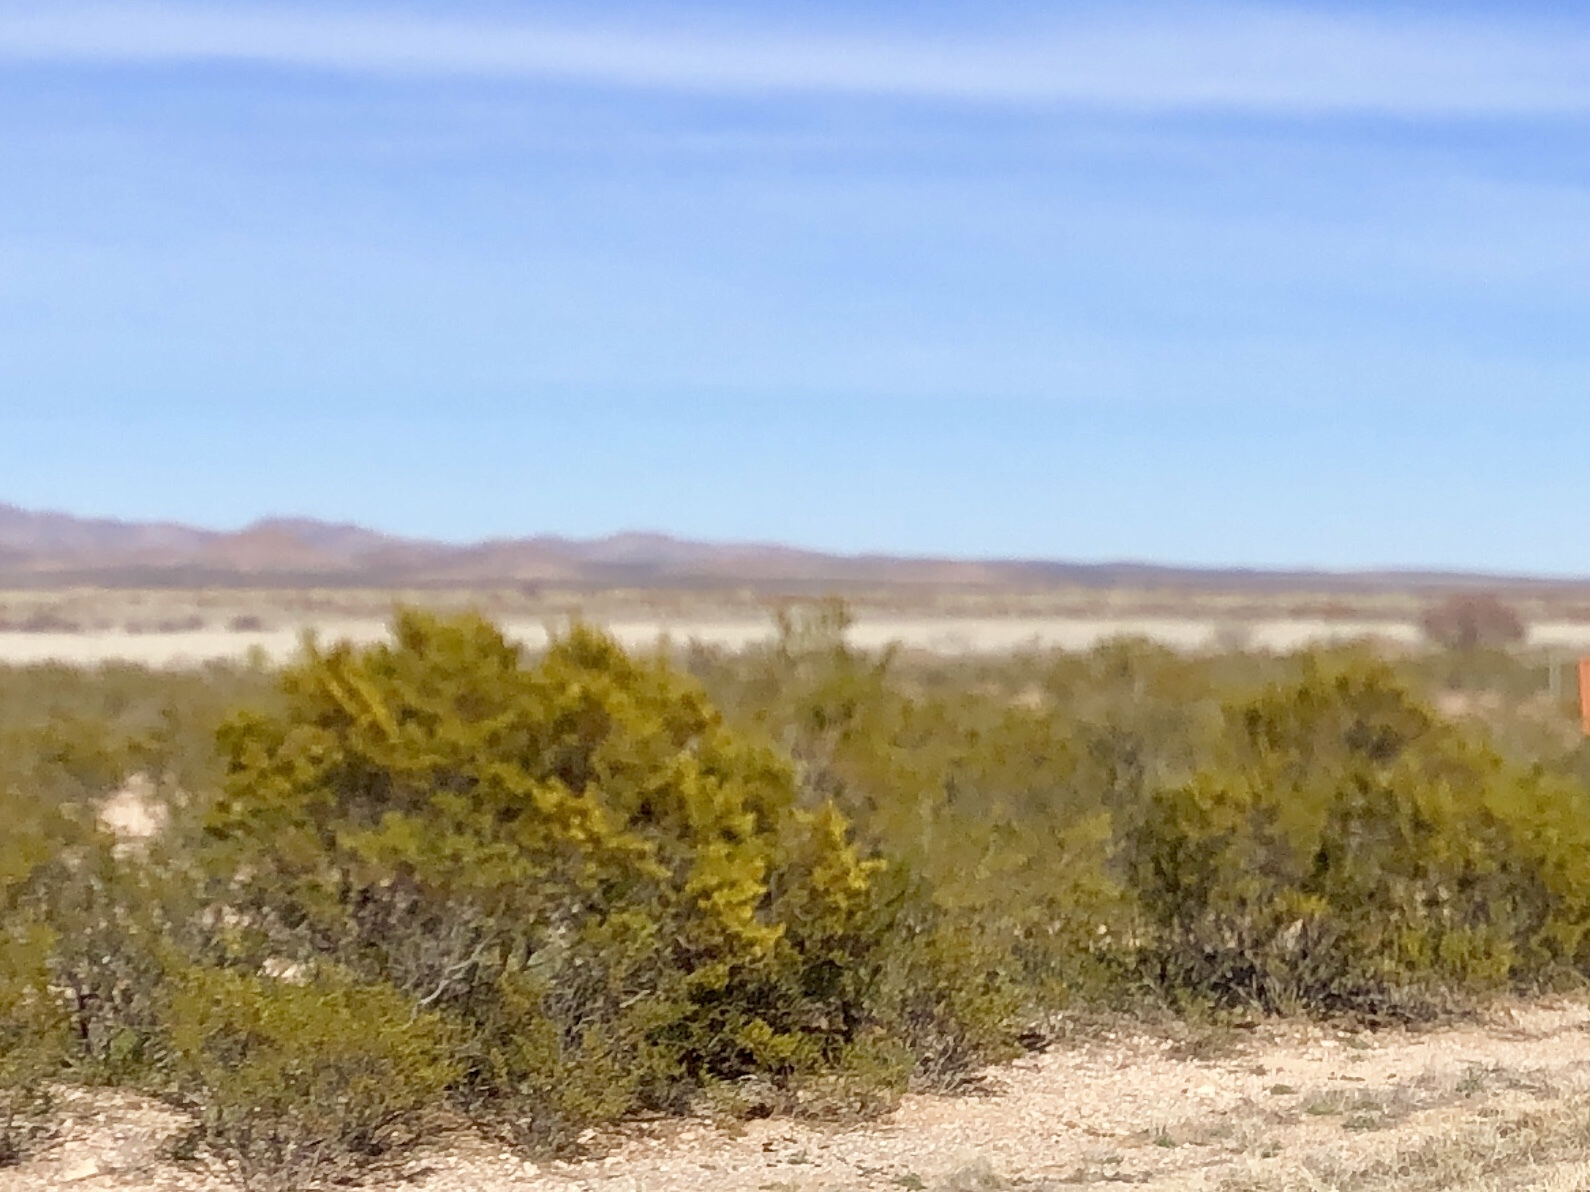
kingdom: Plantae
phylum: Tracheophyta
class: Magnoliopsida
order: Zygophyllales
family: Zygophyllaceae
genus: Larrea
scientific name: Larrea tridentata
